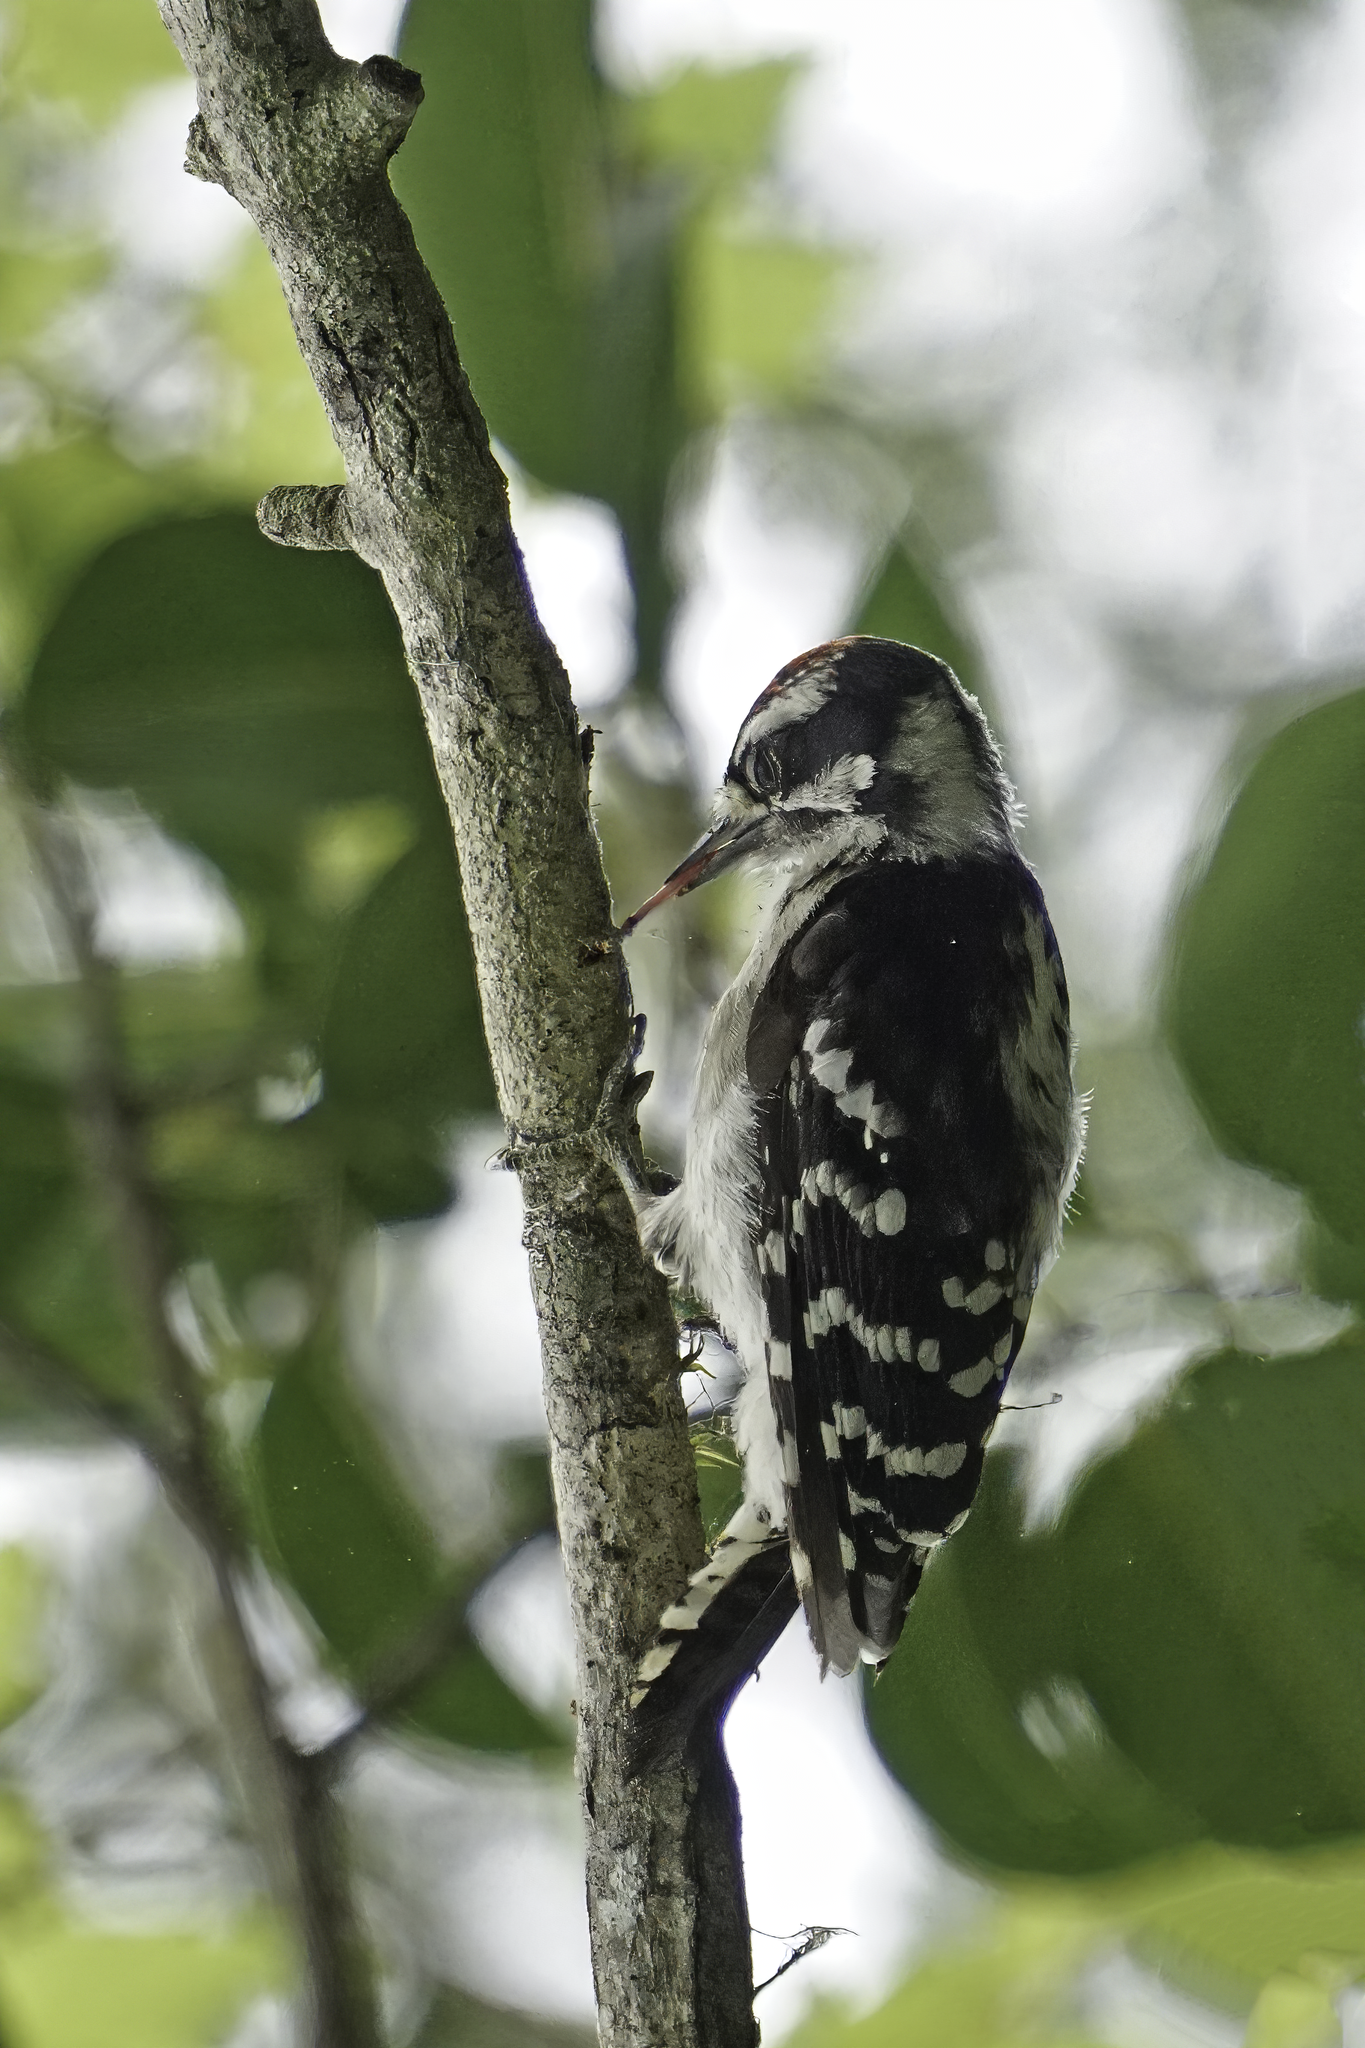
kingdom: Animalia
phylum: Chordata
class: Aves
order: Piciformes
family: Picidae
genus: Dryobates
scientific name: Dryobates pubescens
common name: Downy woodpecker
